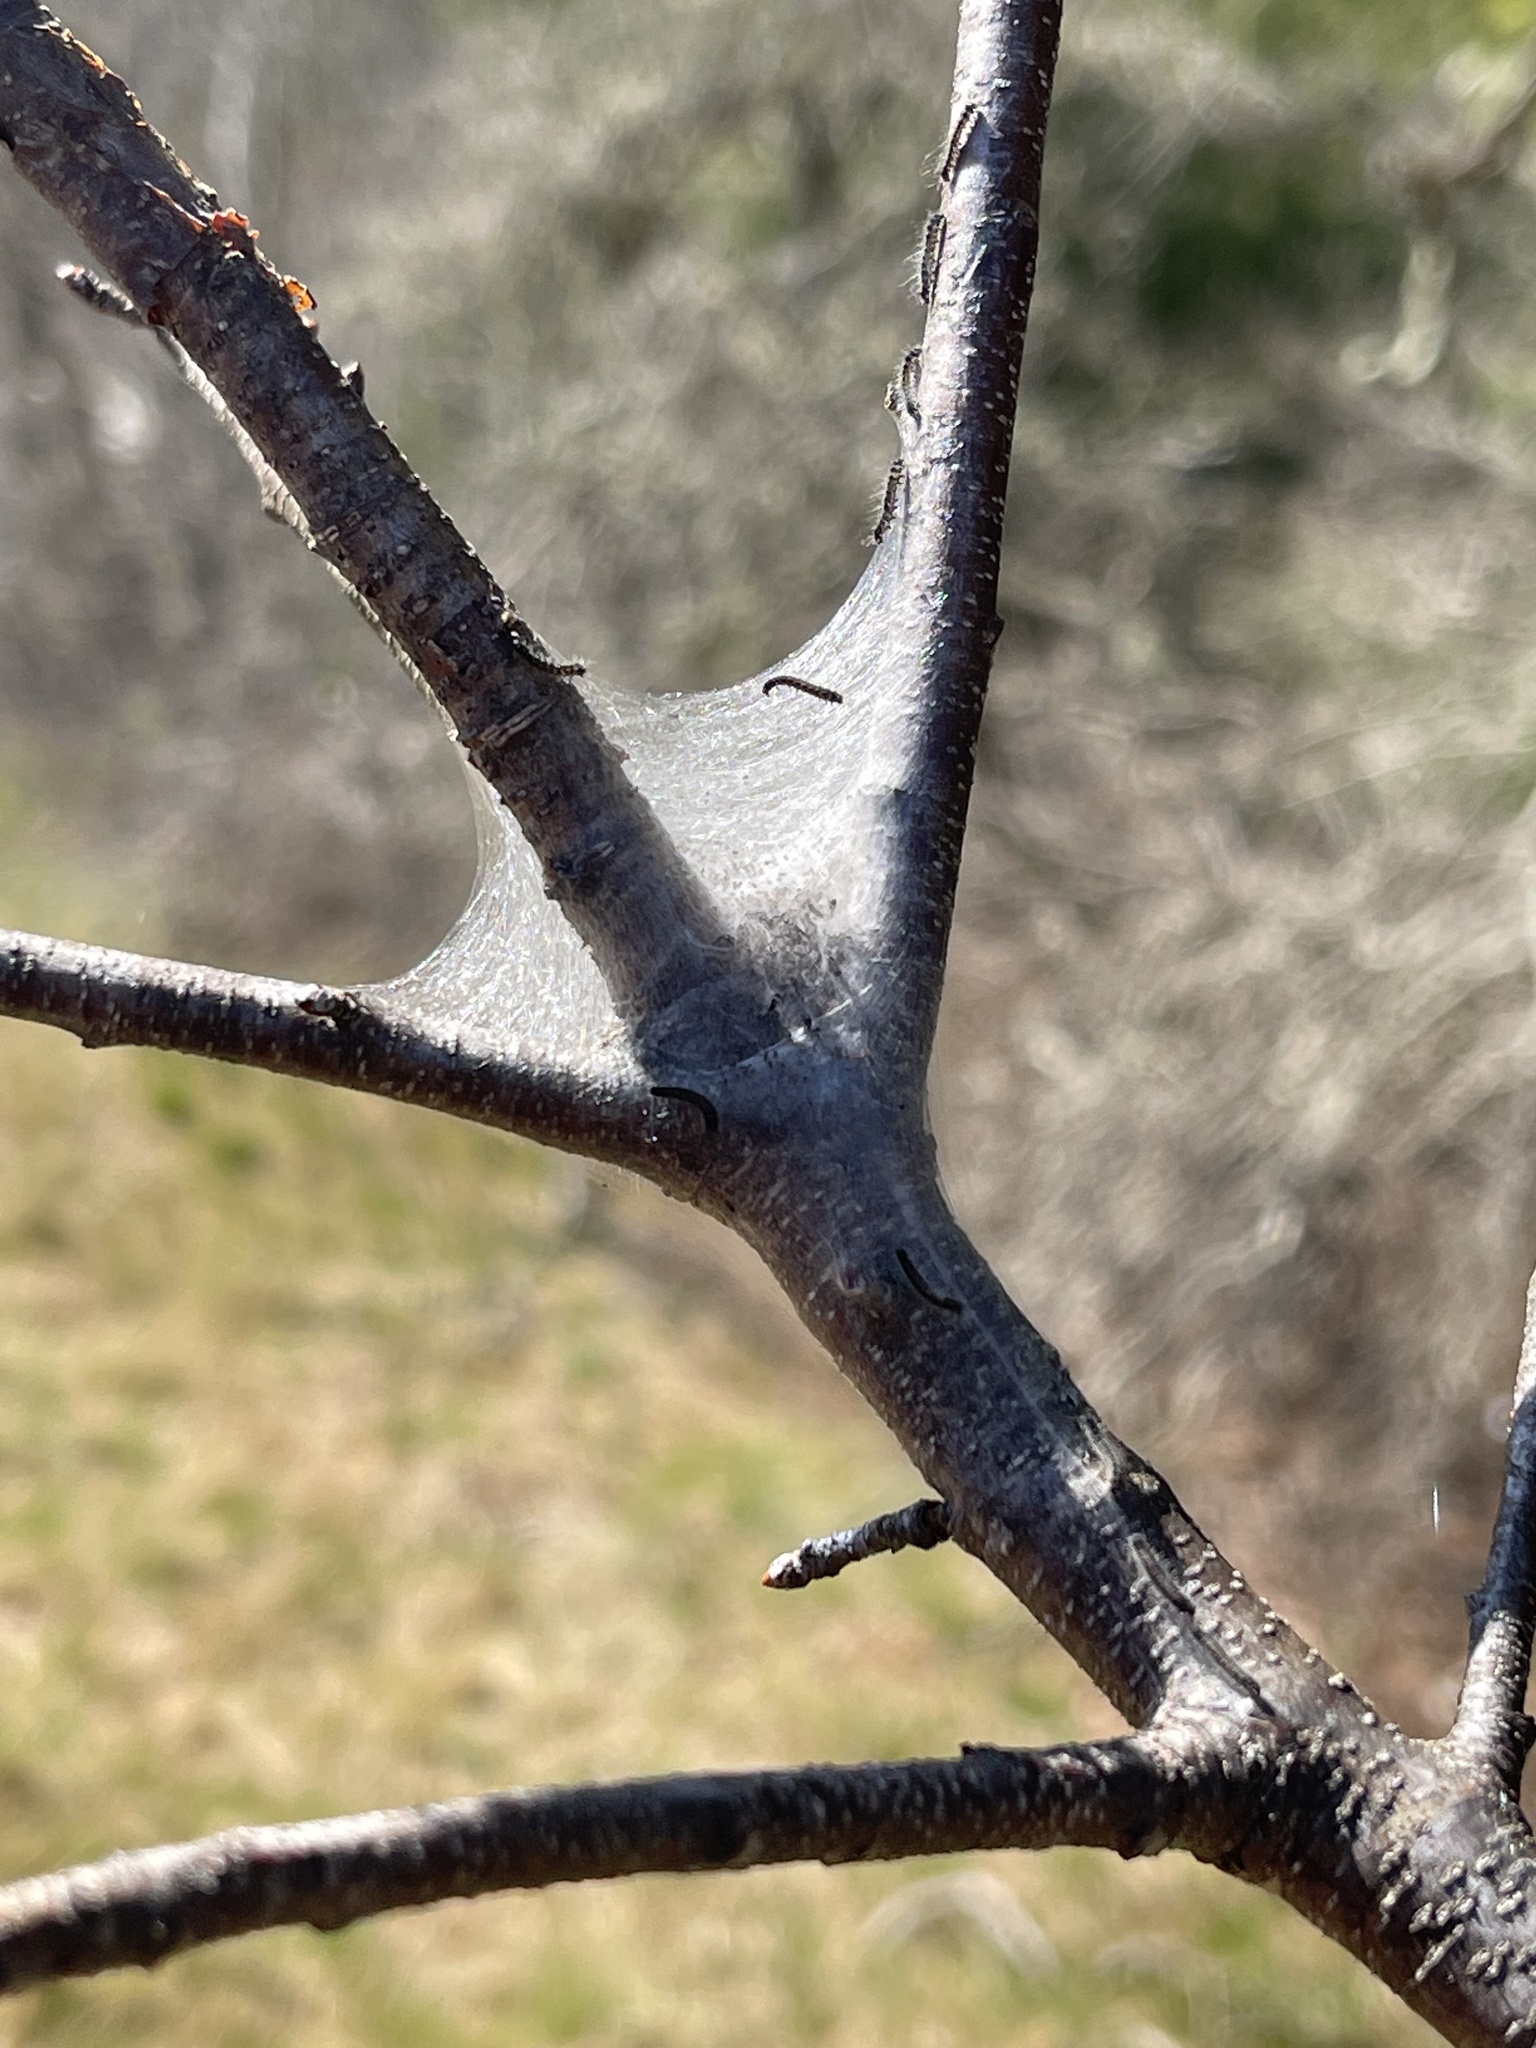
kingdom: Animalia
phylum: Arthropoda
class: Insecta
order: Lepidoptera
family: Lasiocampidae
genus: Malacosoma
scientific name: Malacosoma americana
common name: Eastern tent caterpillar moth
